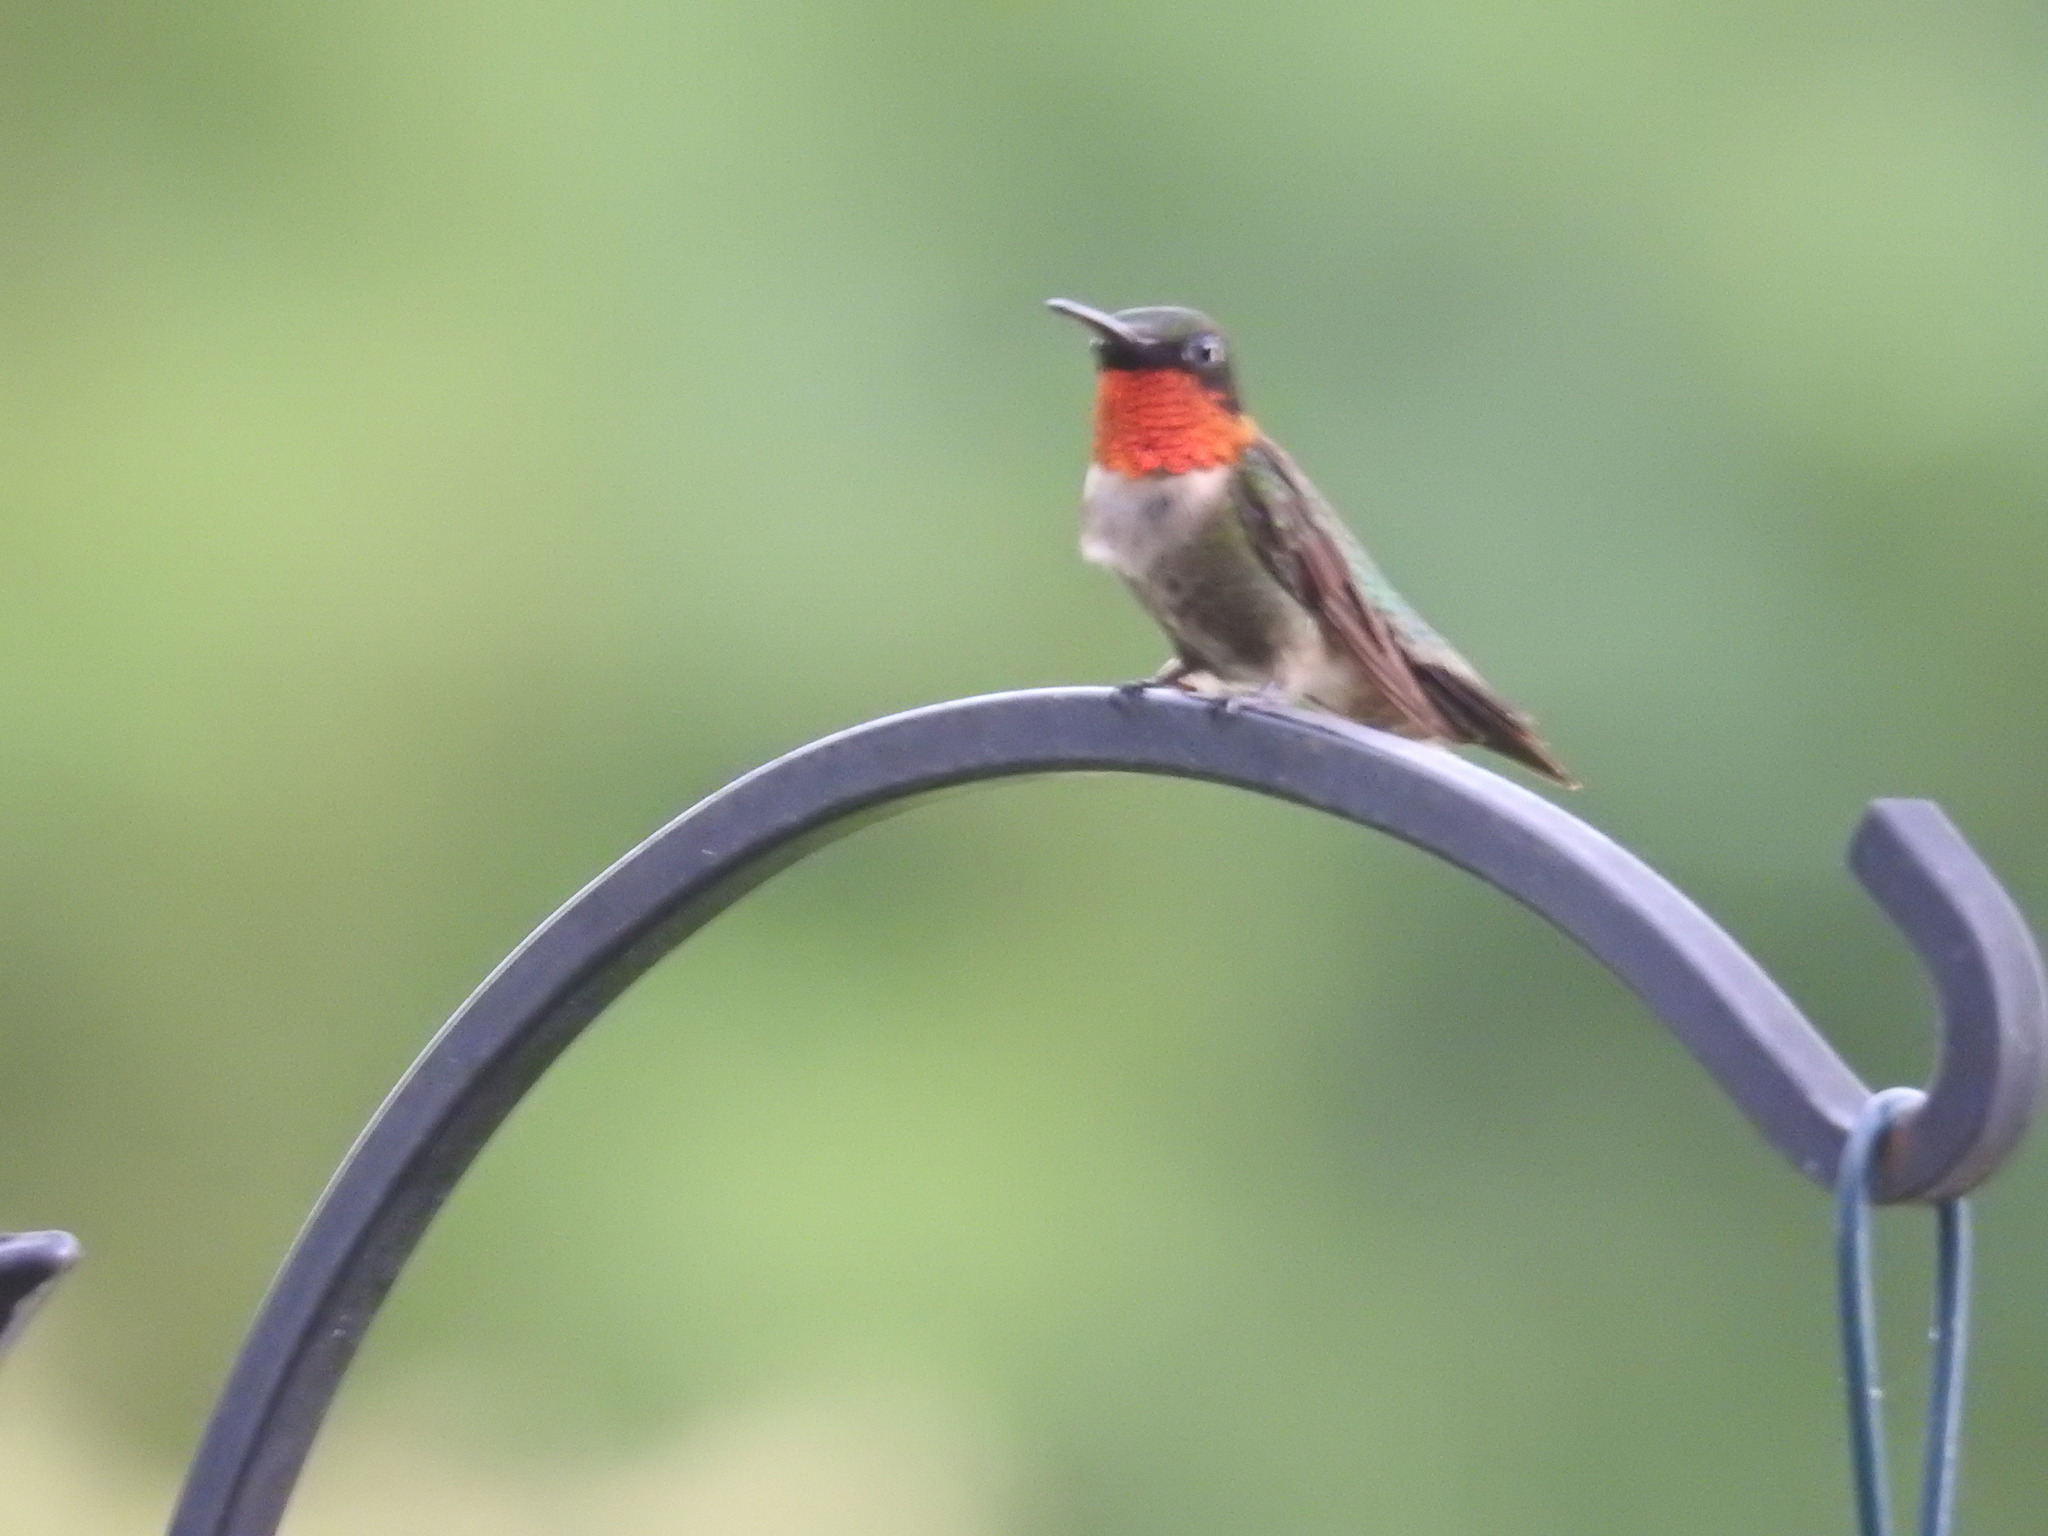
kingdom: Animalia
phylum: Chordata
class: Aves
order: Apodiformes
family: Trochilidae
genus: Archilochus
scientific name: Archilochus colubris
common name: Ruby-throated hummingbird
